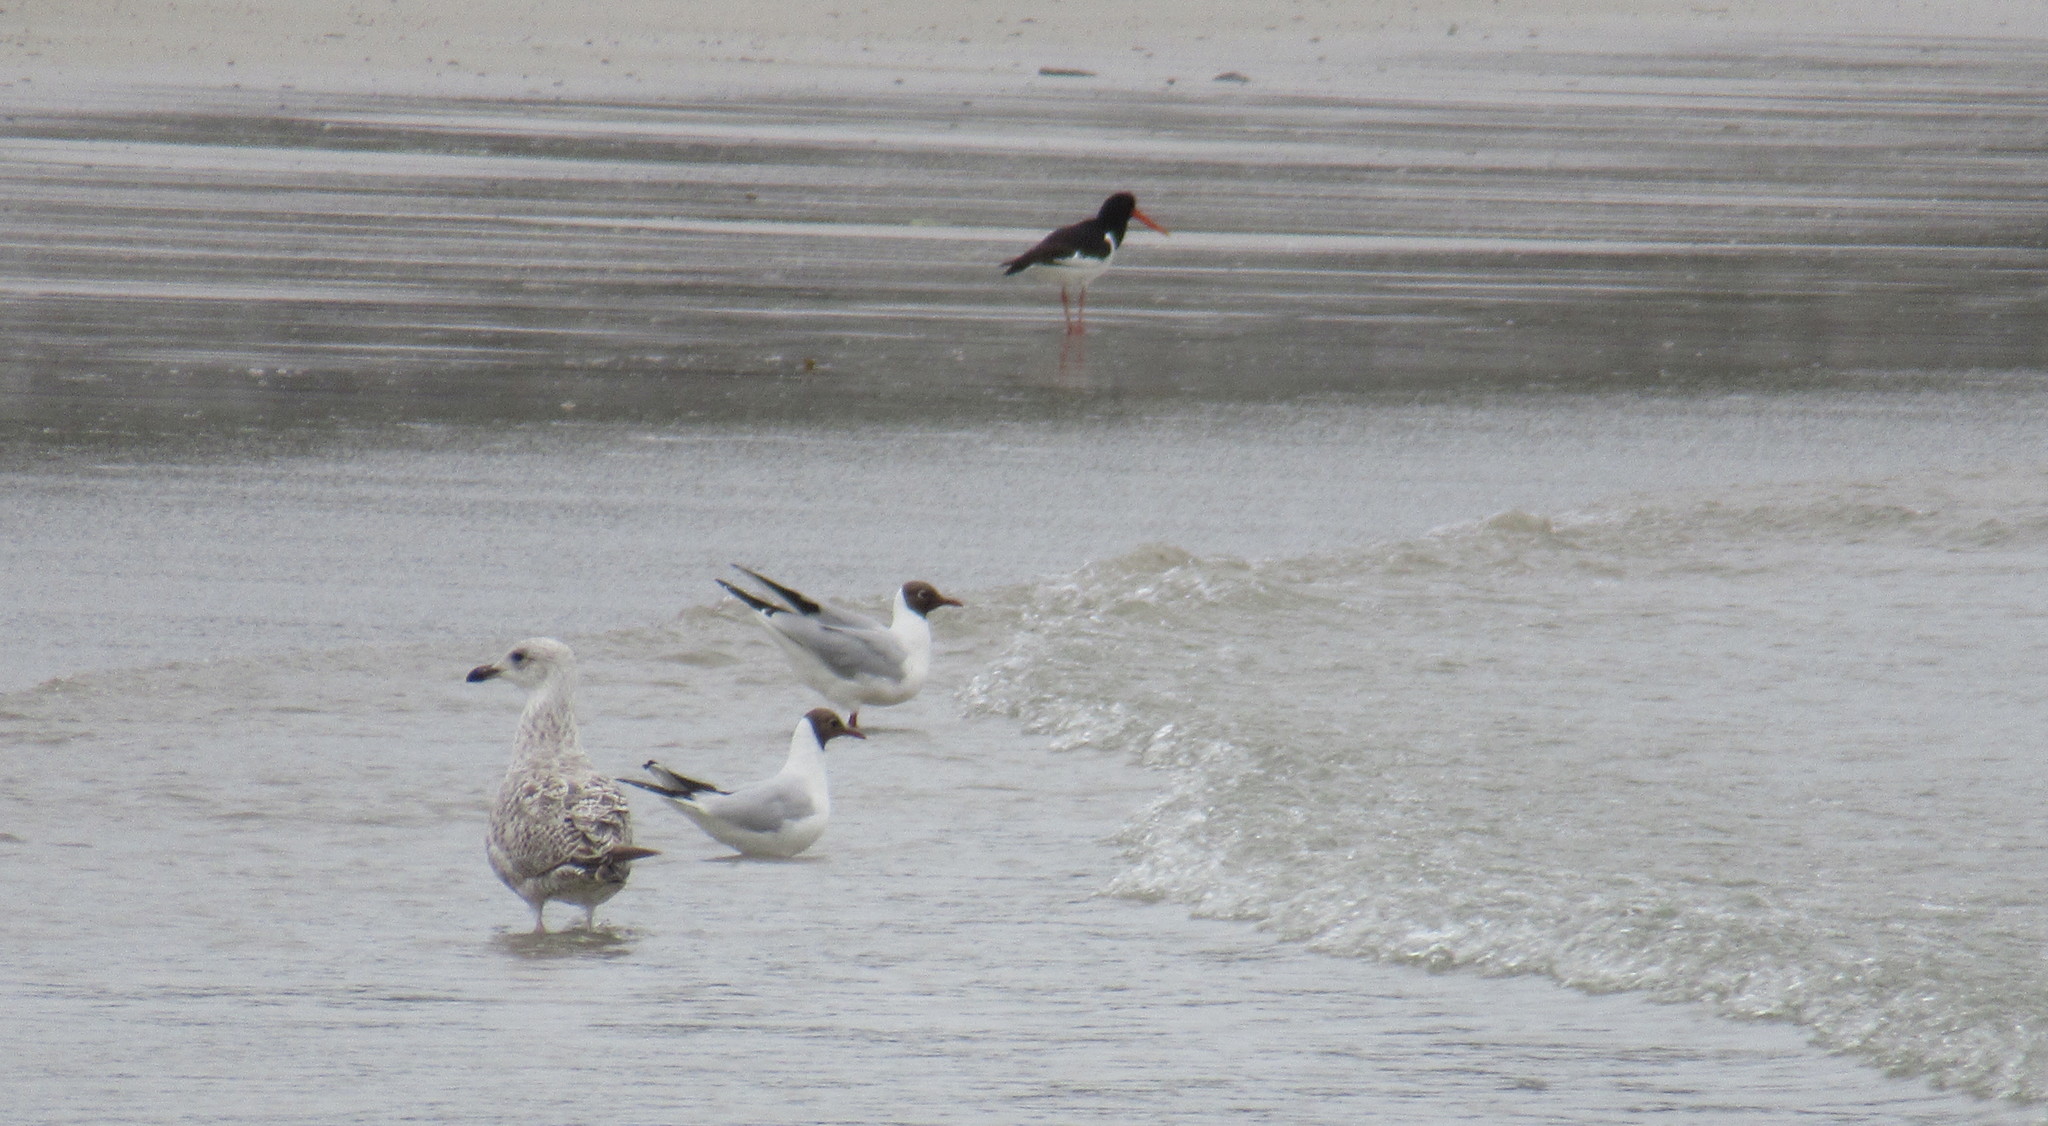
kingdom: Animalia
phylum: Chordata
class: Aves
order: Charadriiformes
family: Laridae
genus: Chroicocephalus
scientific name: Chroicocephalus ridibundus
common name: Black-headed gull
